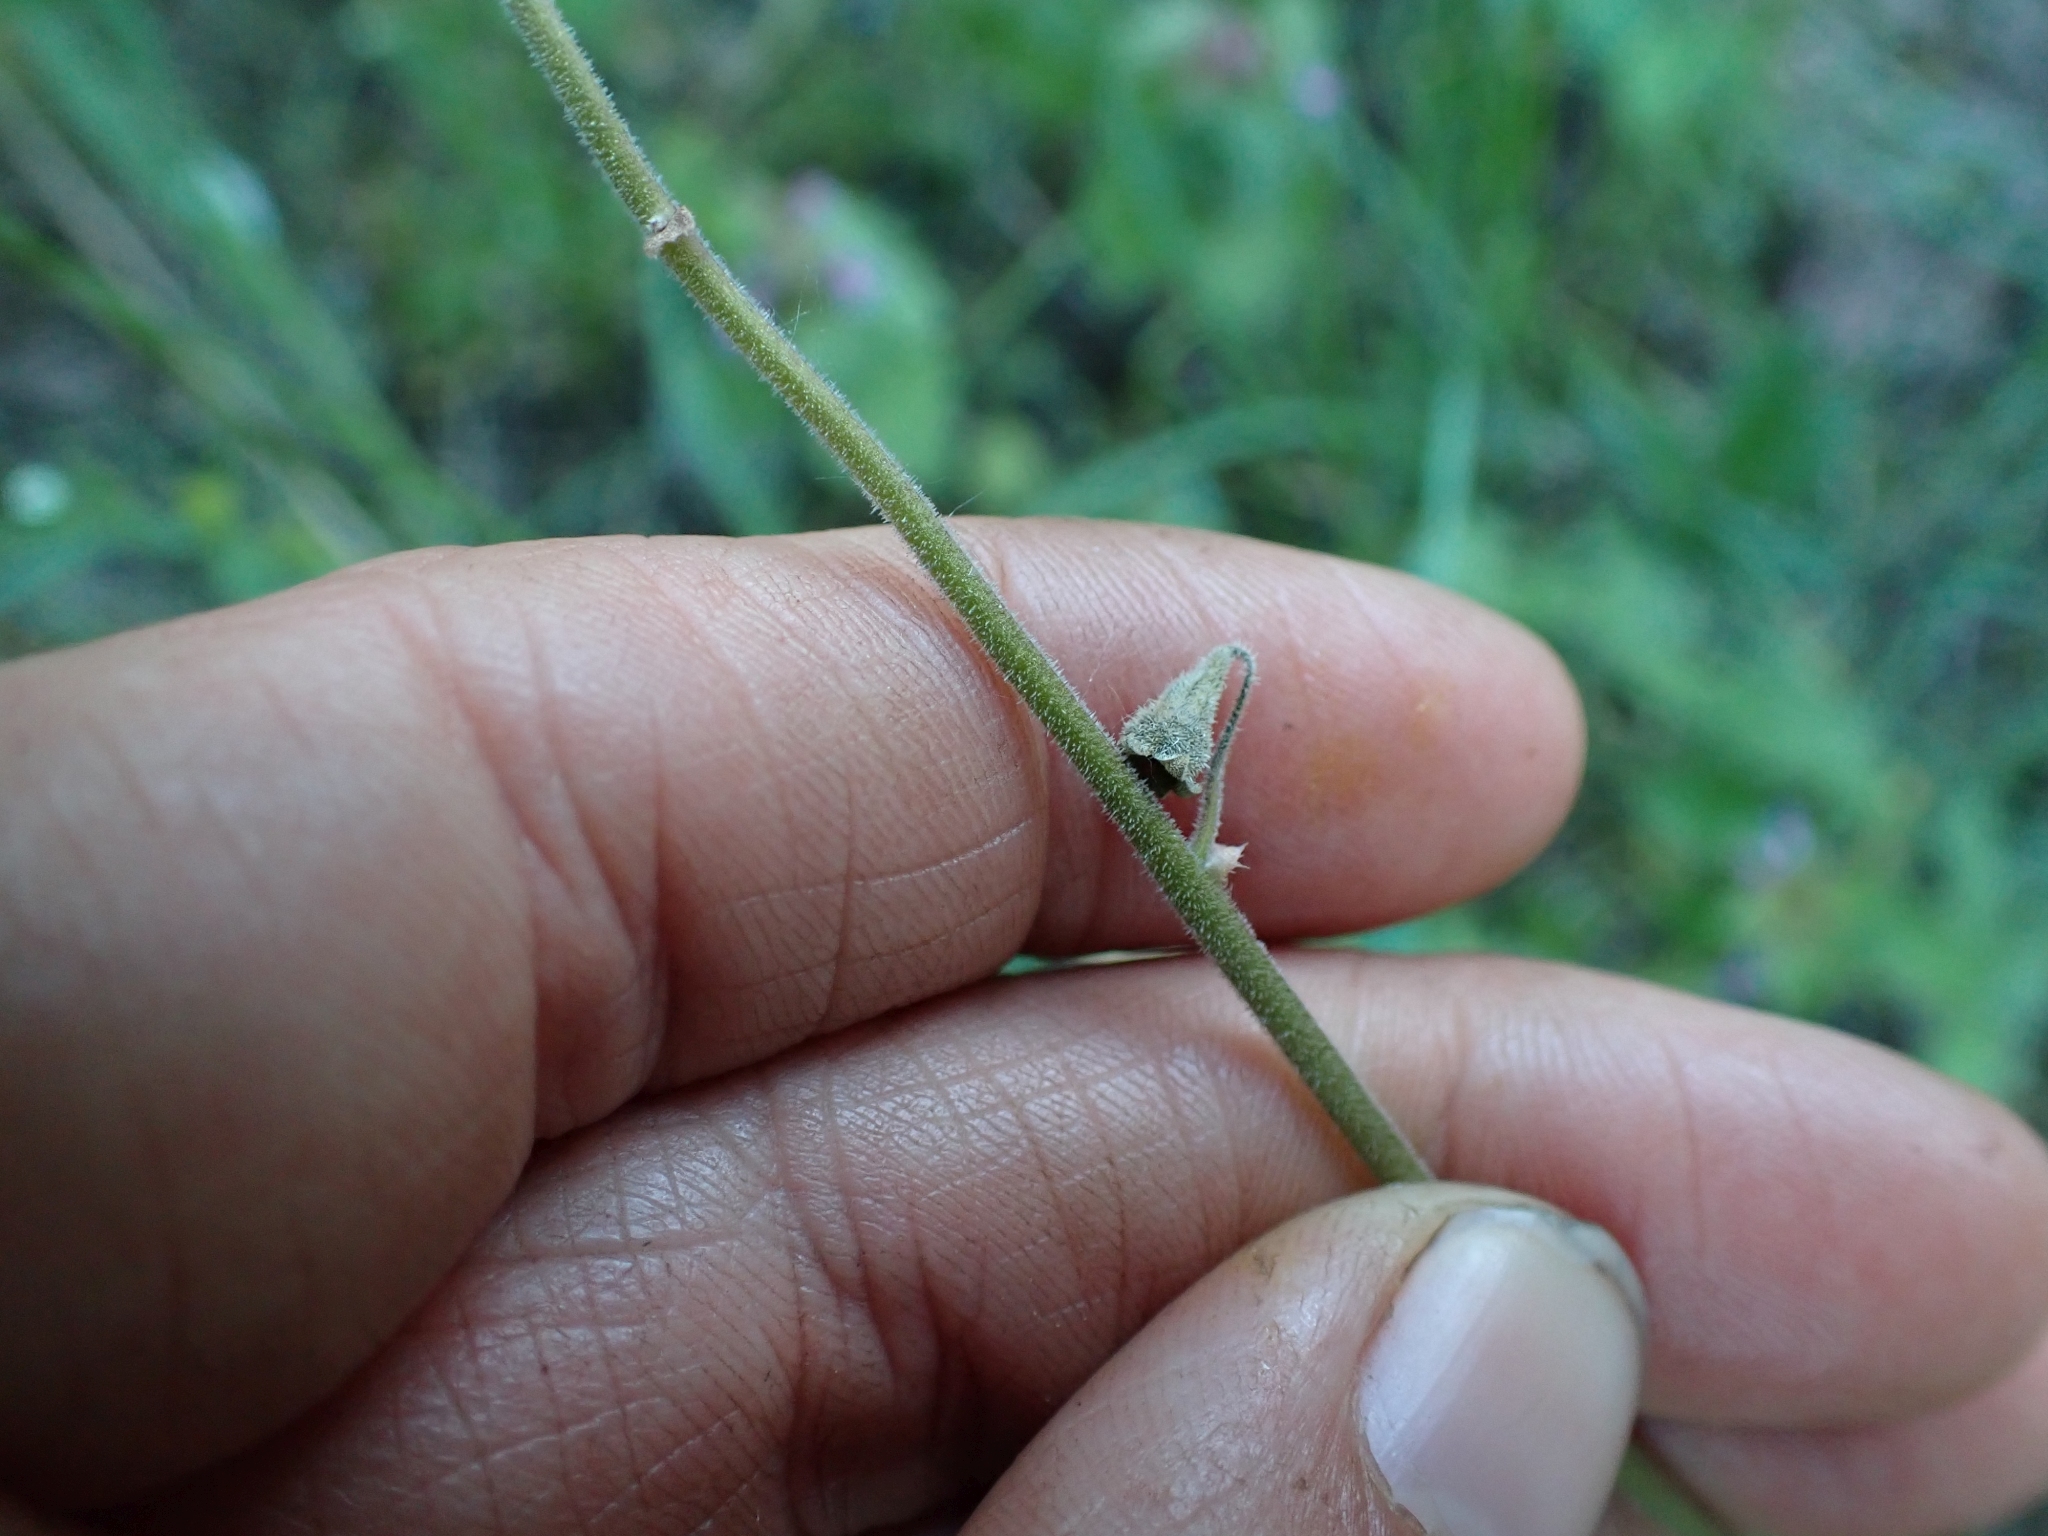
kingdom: Plantae
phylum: Tracheophyta
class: Magnoliopsida
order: Saxifragales
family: Saxifragaceae
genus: Lithophragma
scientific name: Lithophragma parviflorum
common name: Small-flowered fringe-cup
